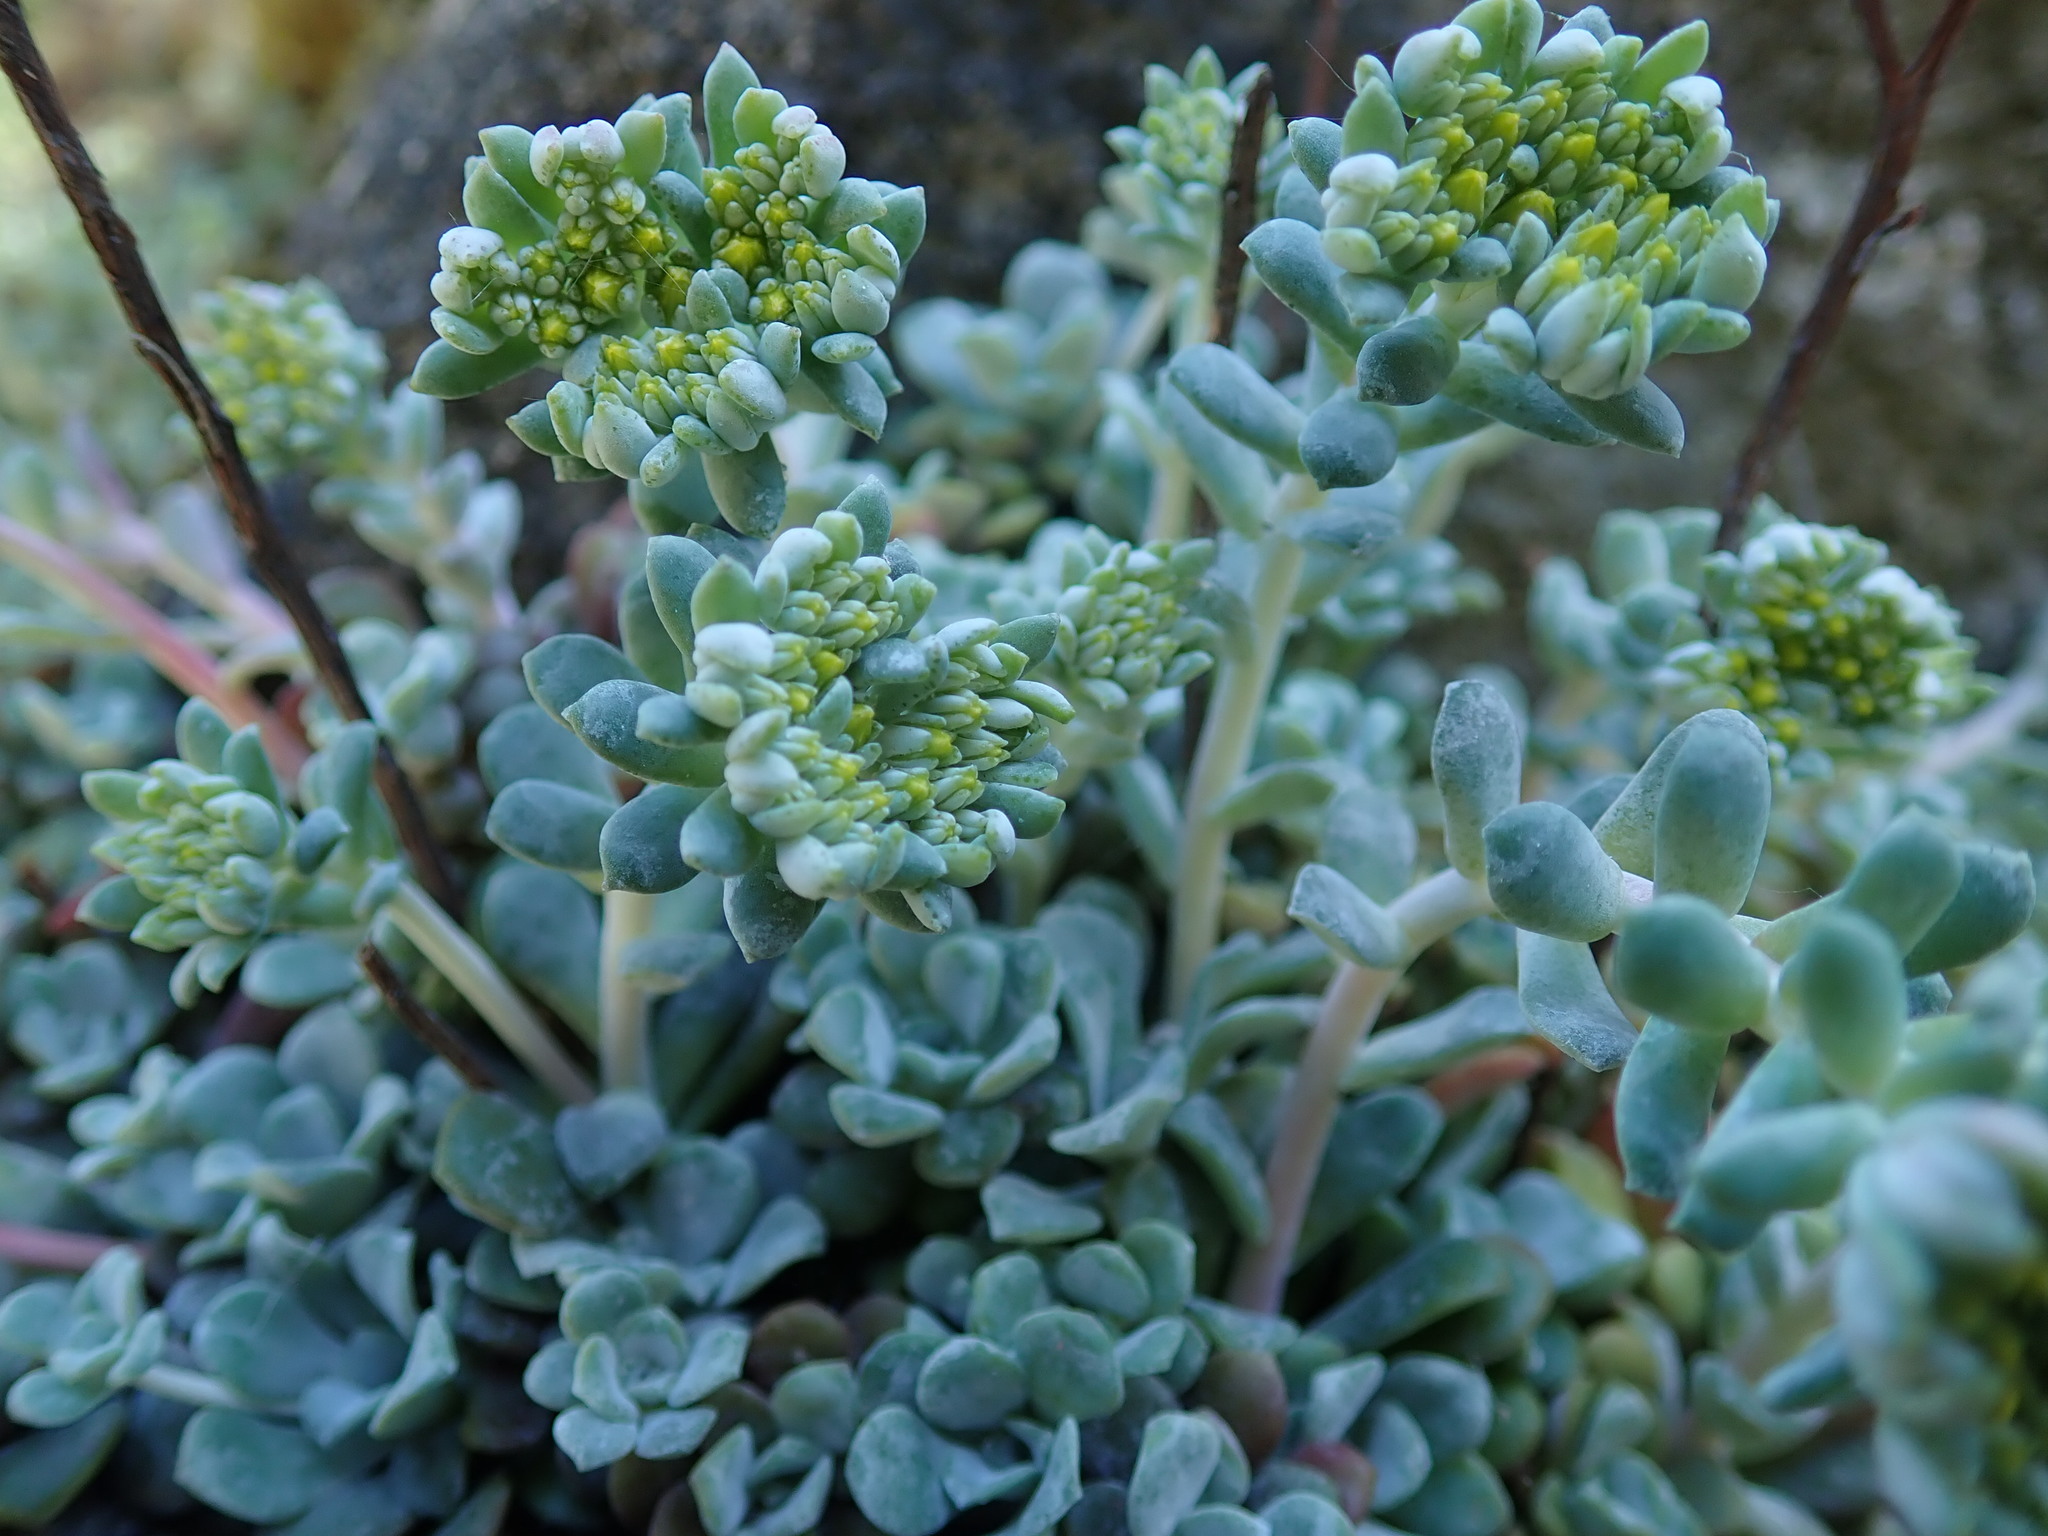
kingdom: Plantae
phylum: Tracheophyta
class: Magnoliopsida
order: Saxifragales
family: Crassulaceae
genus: Sedum
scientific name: Sedum spathulifolium
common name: Colorado stonecrop
